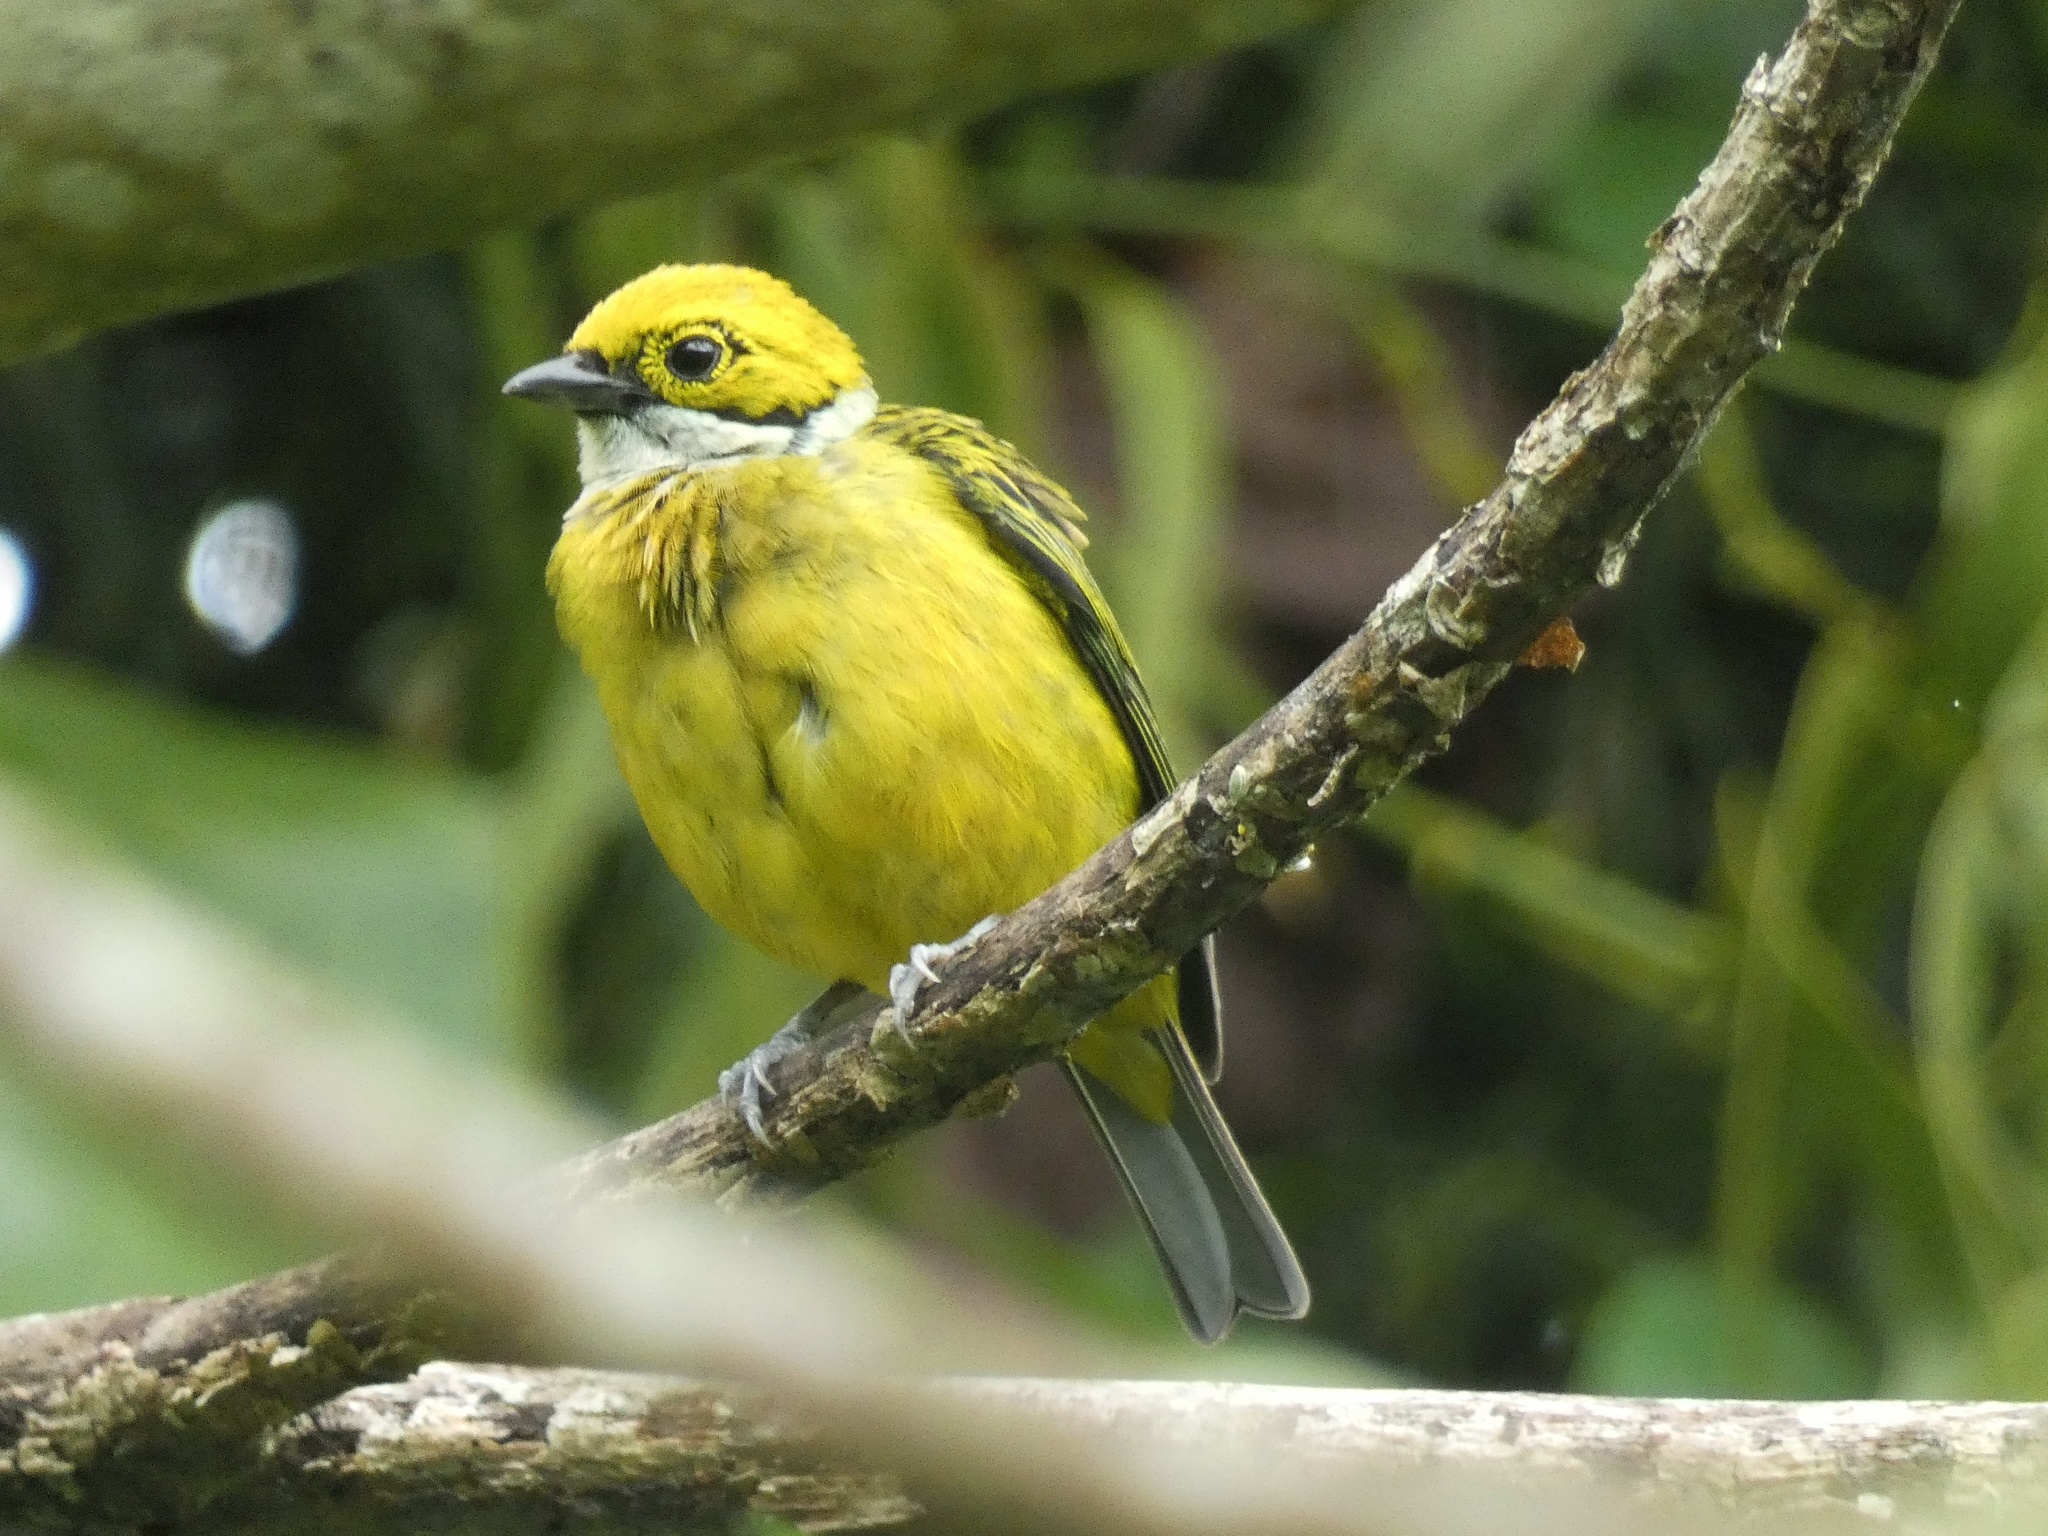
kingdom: Animalia
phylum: Chordata
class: Aves
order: Passeriformes
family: Thraupidae
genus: Tangara
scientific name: Tangara icterocephala
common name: Silver-throated tanager
